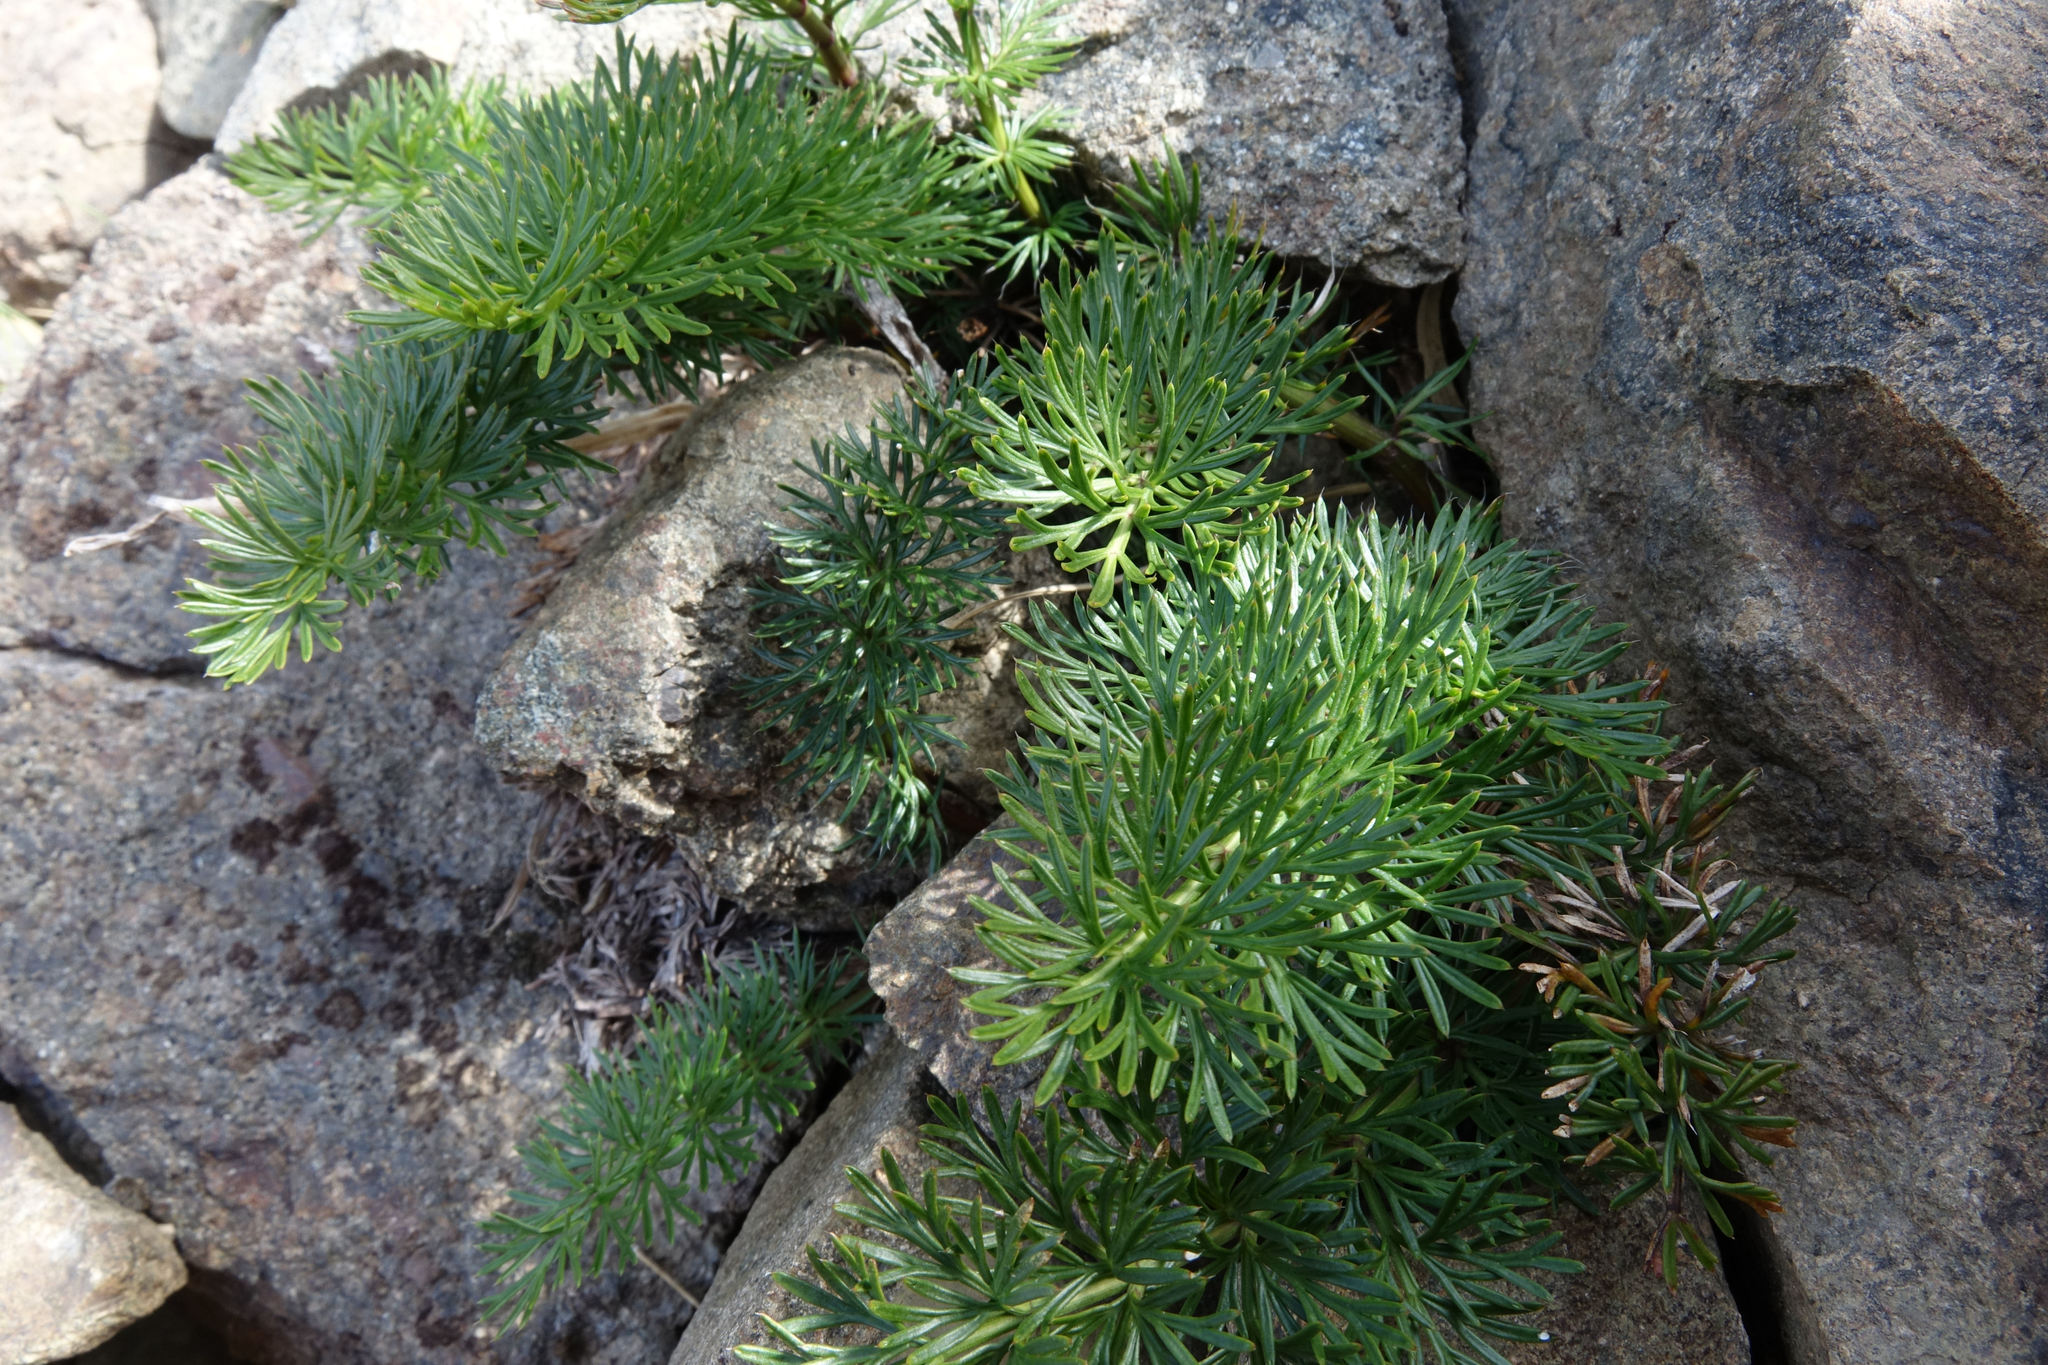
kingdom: Plantae
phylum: Tracheophyta
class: Magnoliopsida
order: Apiales
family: Apiaceae
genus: Anisotome
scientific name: Anisotome haastii
